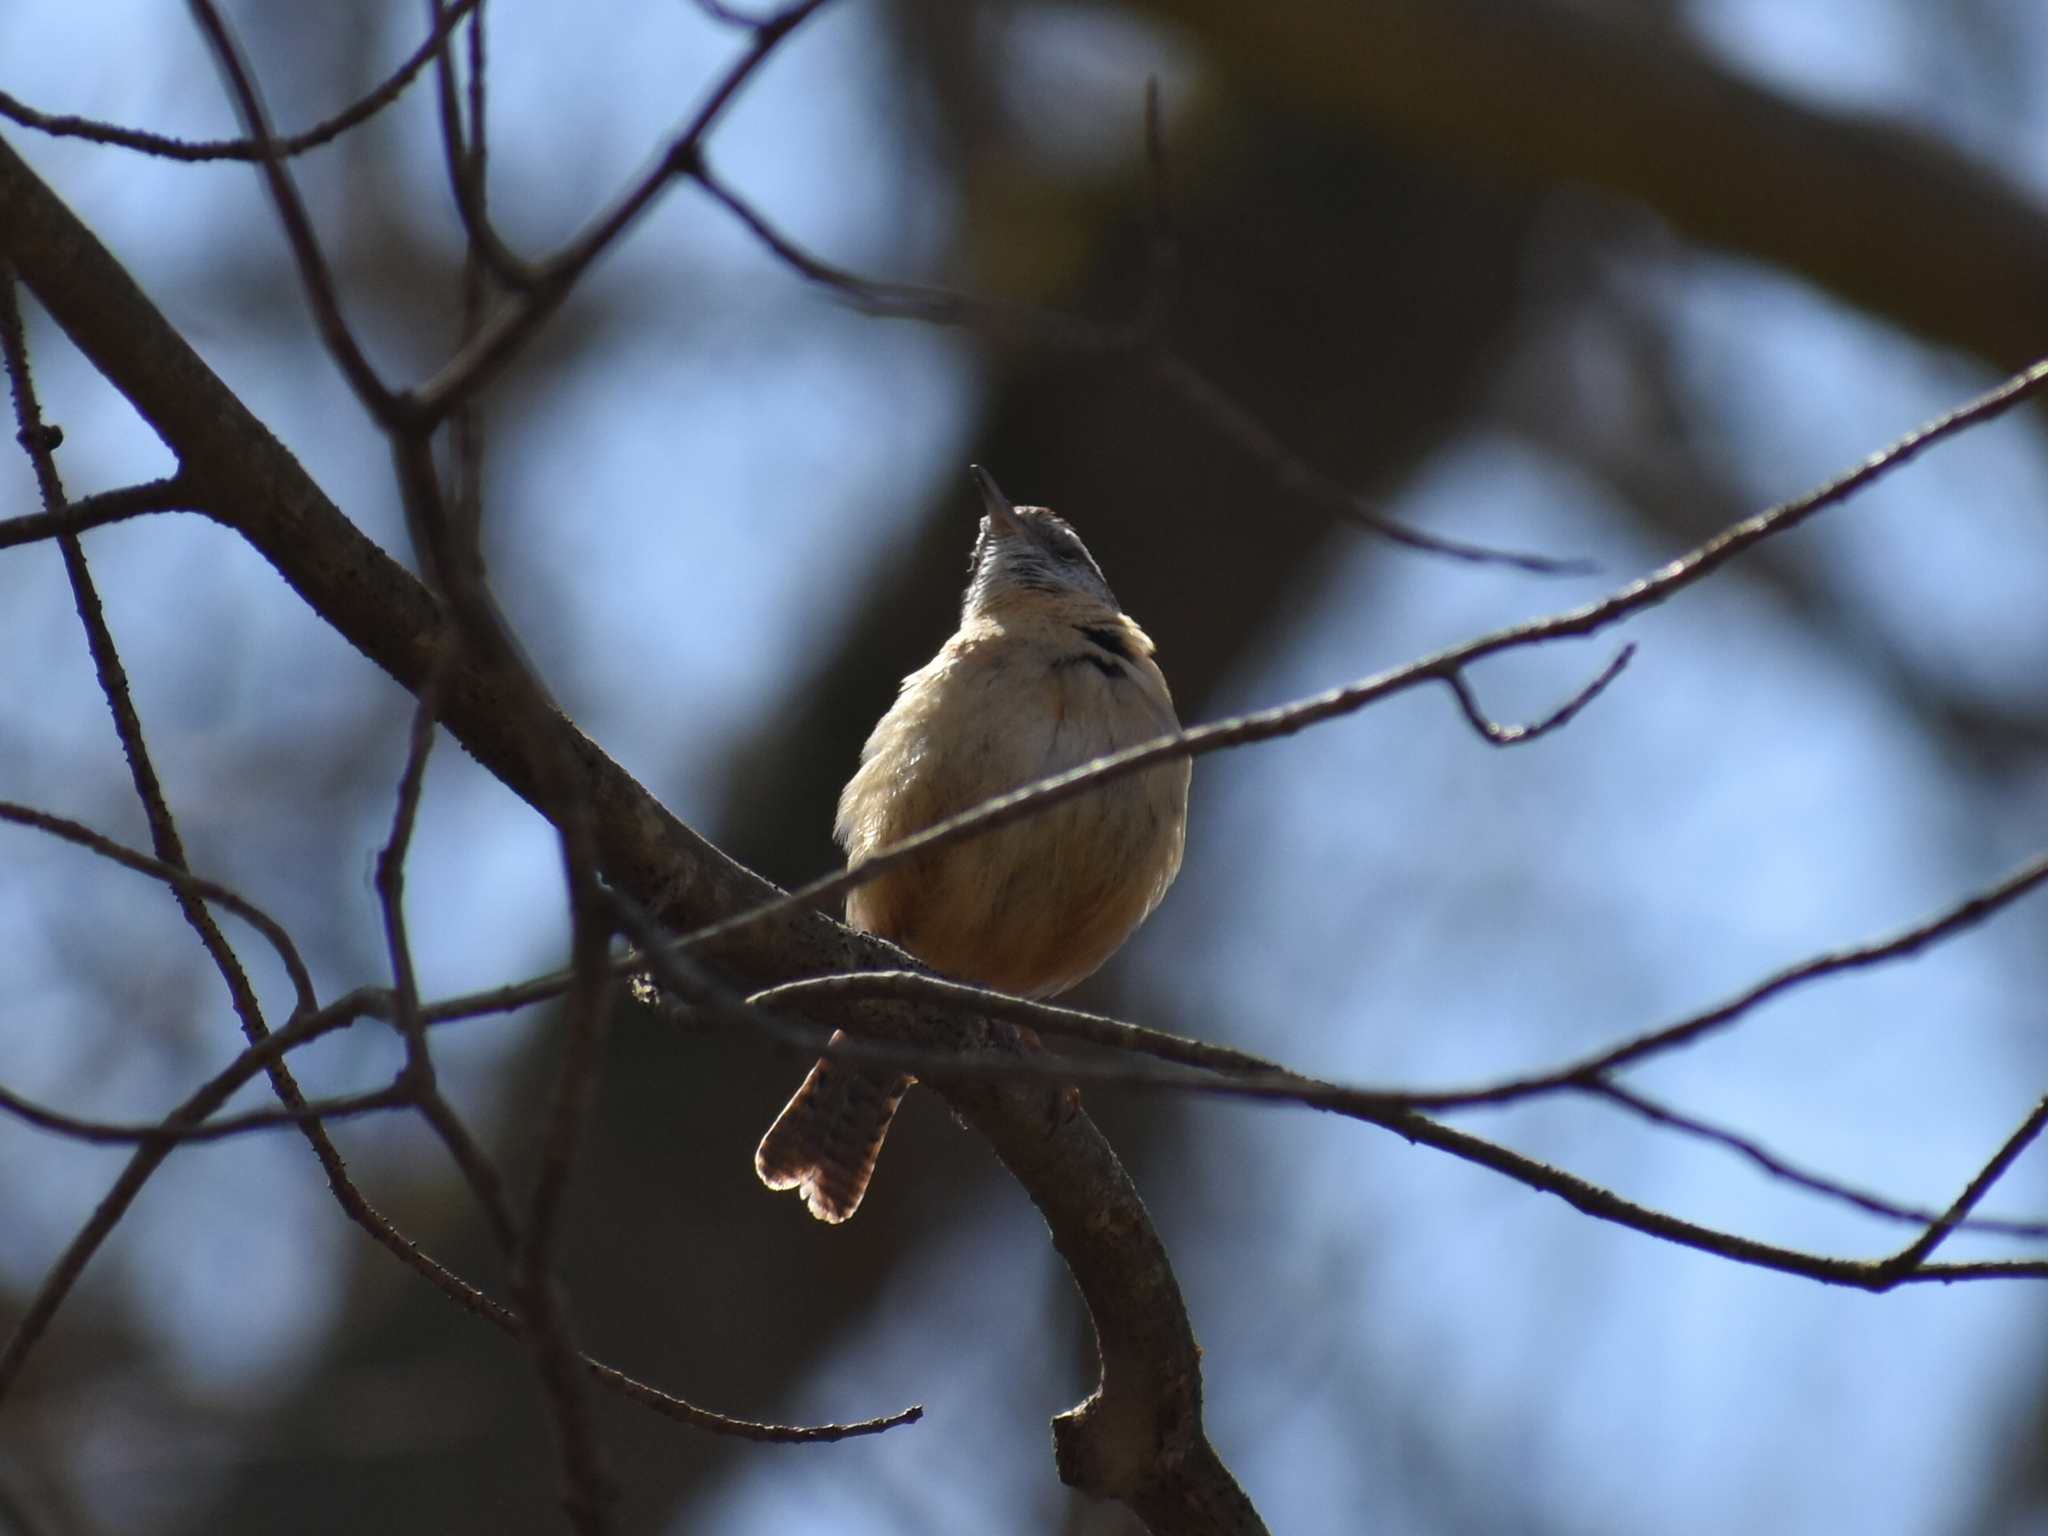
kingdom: Animalia
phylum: Chordata
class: Aves
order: Passeriformes
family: Troglodytidae
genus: Thryothorus
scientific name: Thryothorus ludovicianus
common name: Carolina wren
